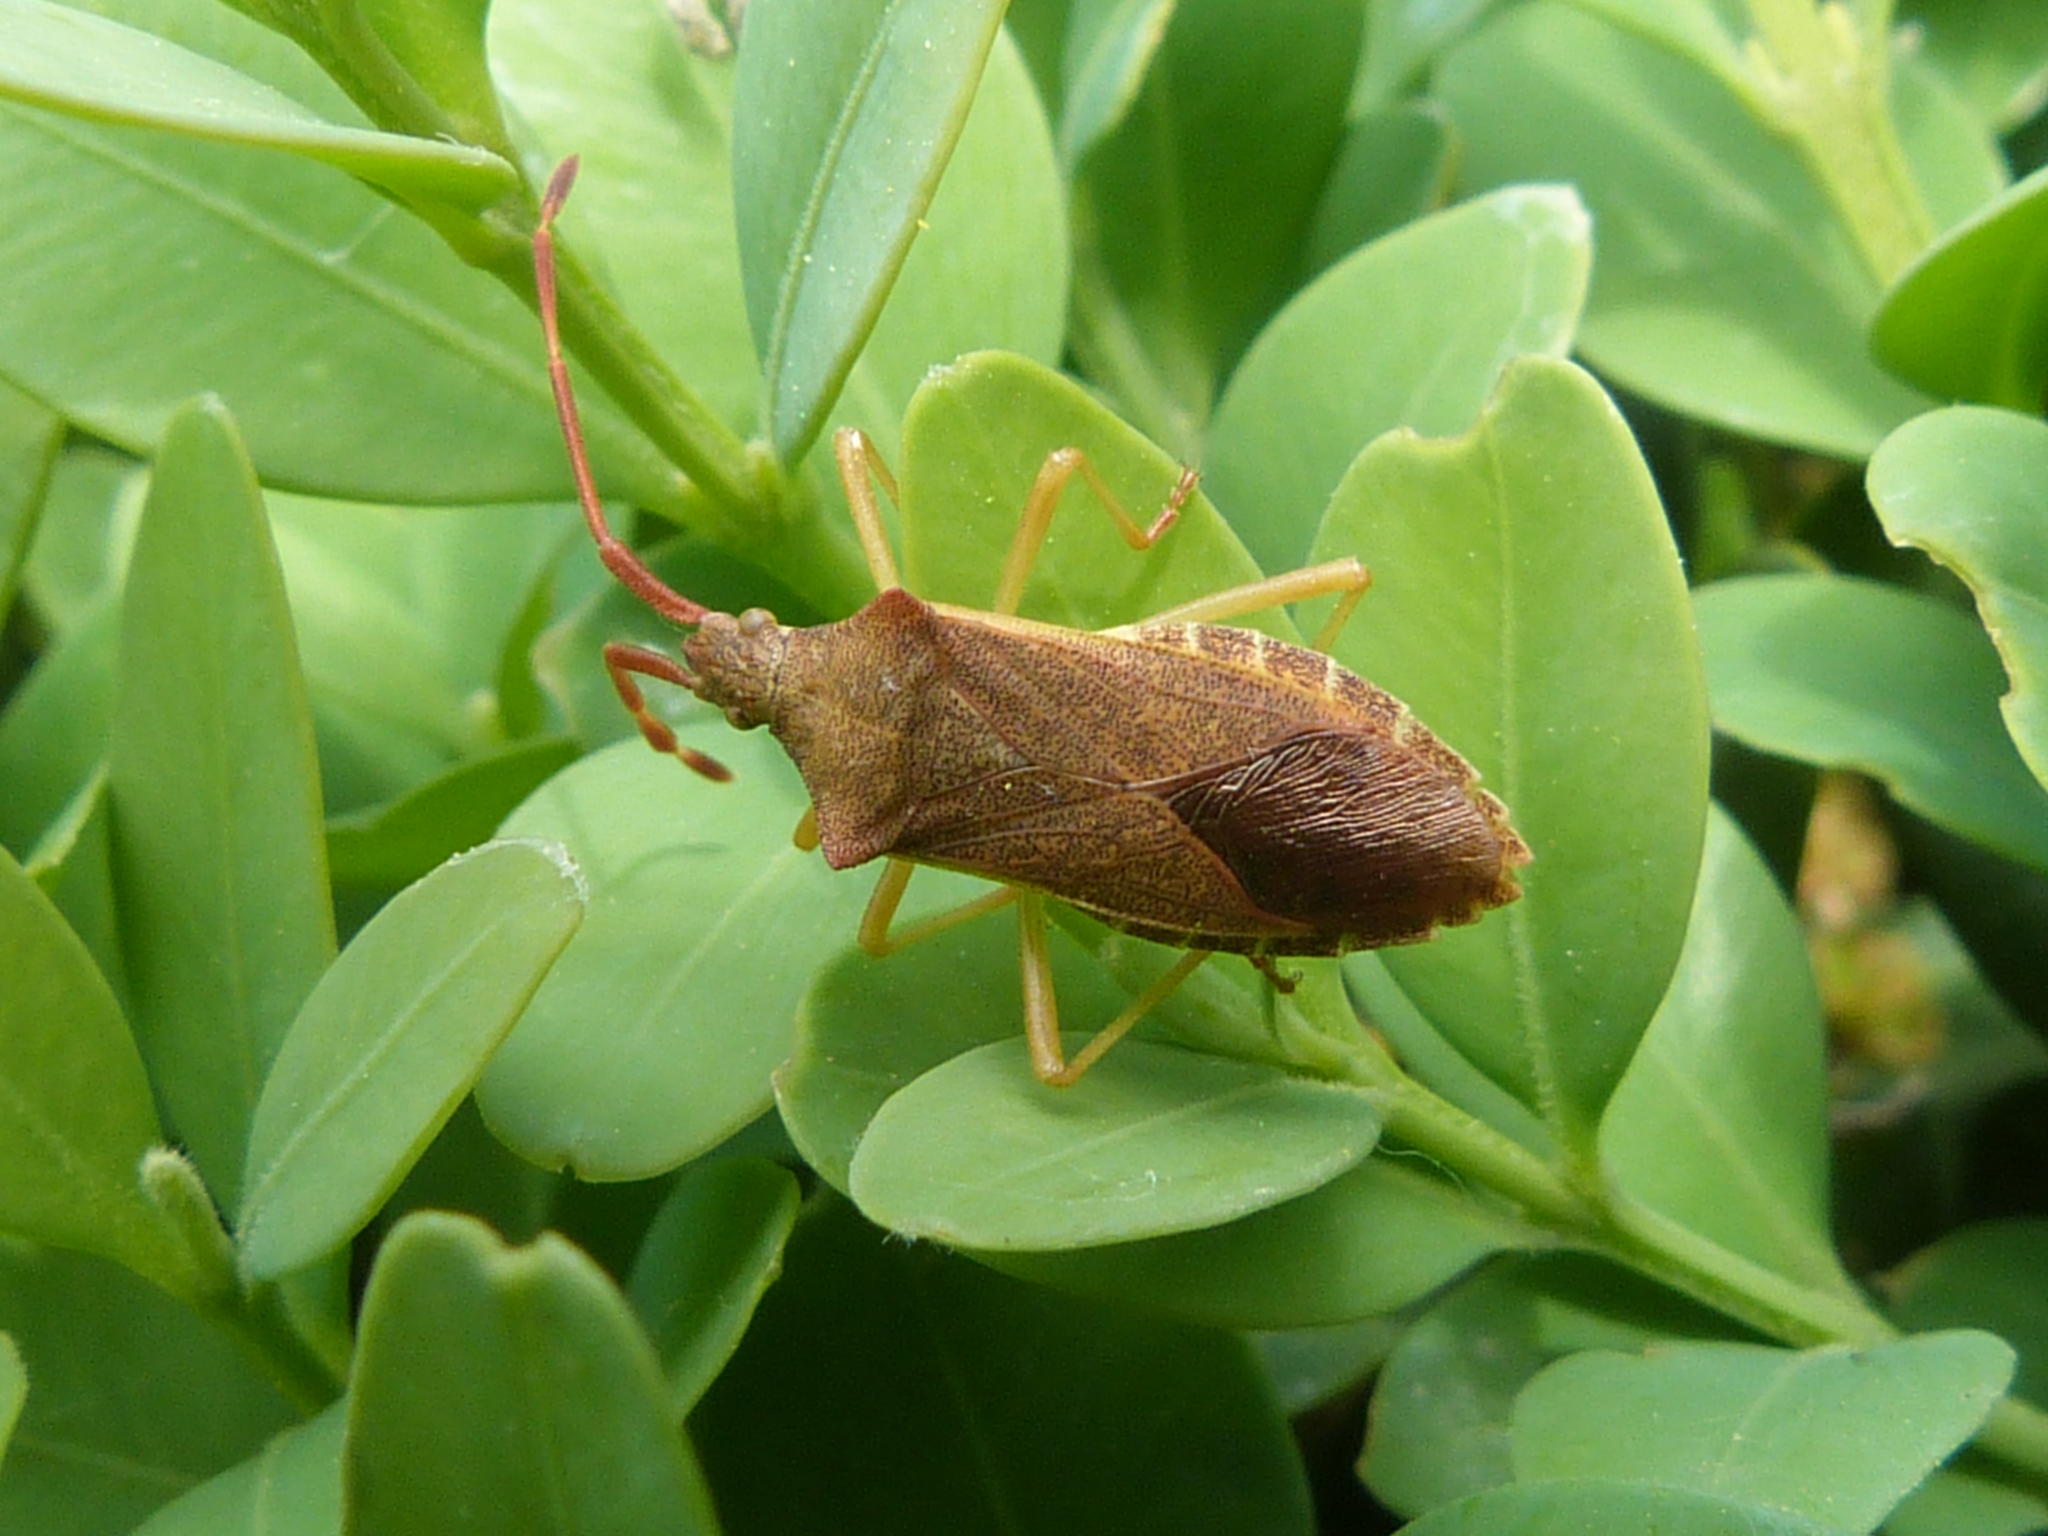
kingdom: Animalia
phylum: Arthropoda
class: Insecta
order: Hemiptera
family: Coreidae
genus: Gonocerus
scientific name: Gonocerus acuteangulatus
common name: Box bug
